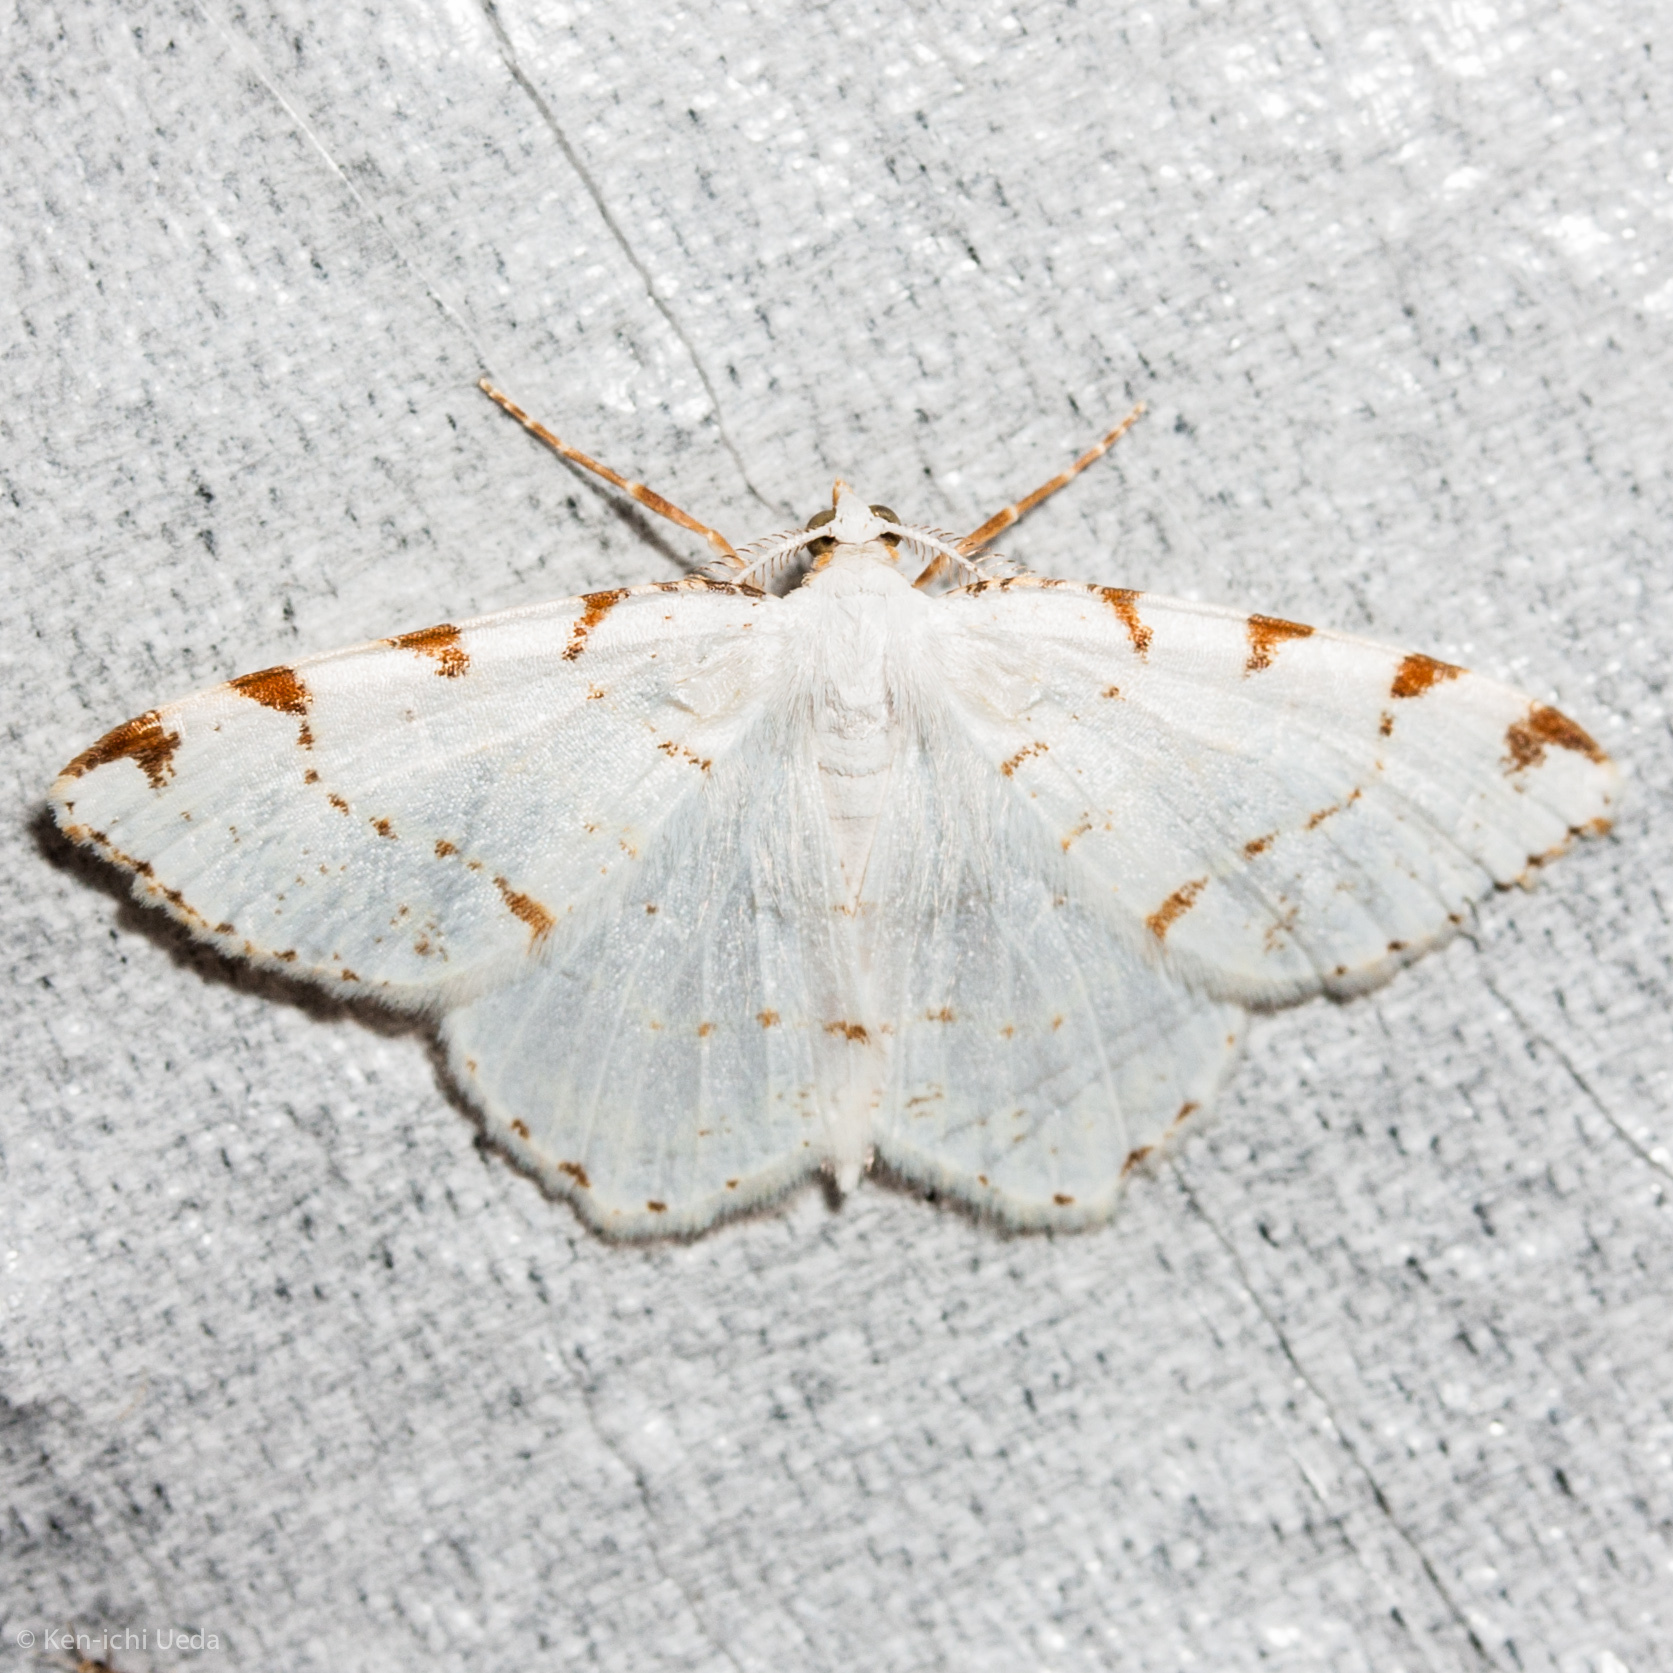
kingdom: Animalia
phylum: Arthropoda
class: Insecta
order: Lepidoptera
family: Geometridae
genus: Macaria
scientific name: Macaria pustularia
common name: Lesser maple spanworm moth
